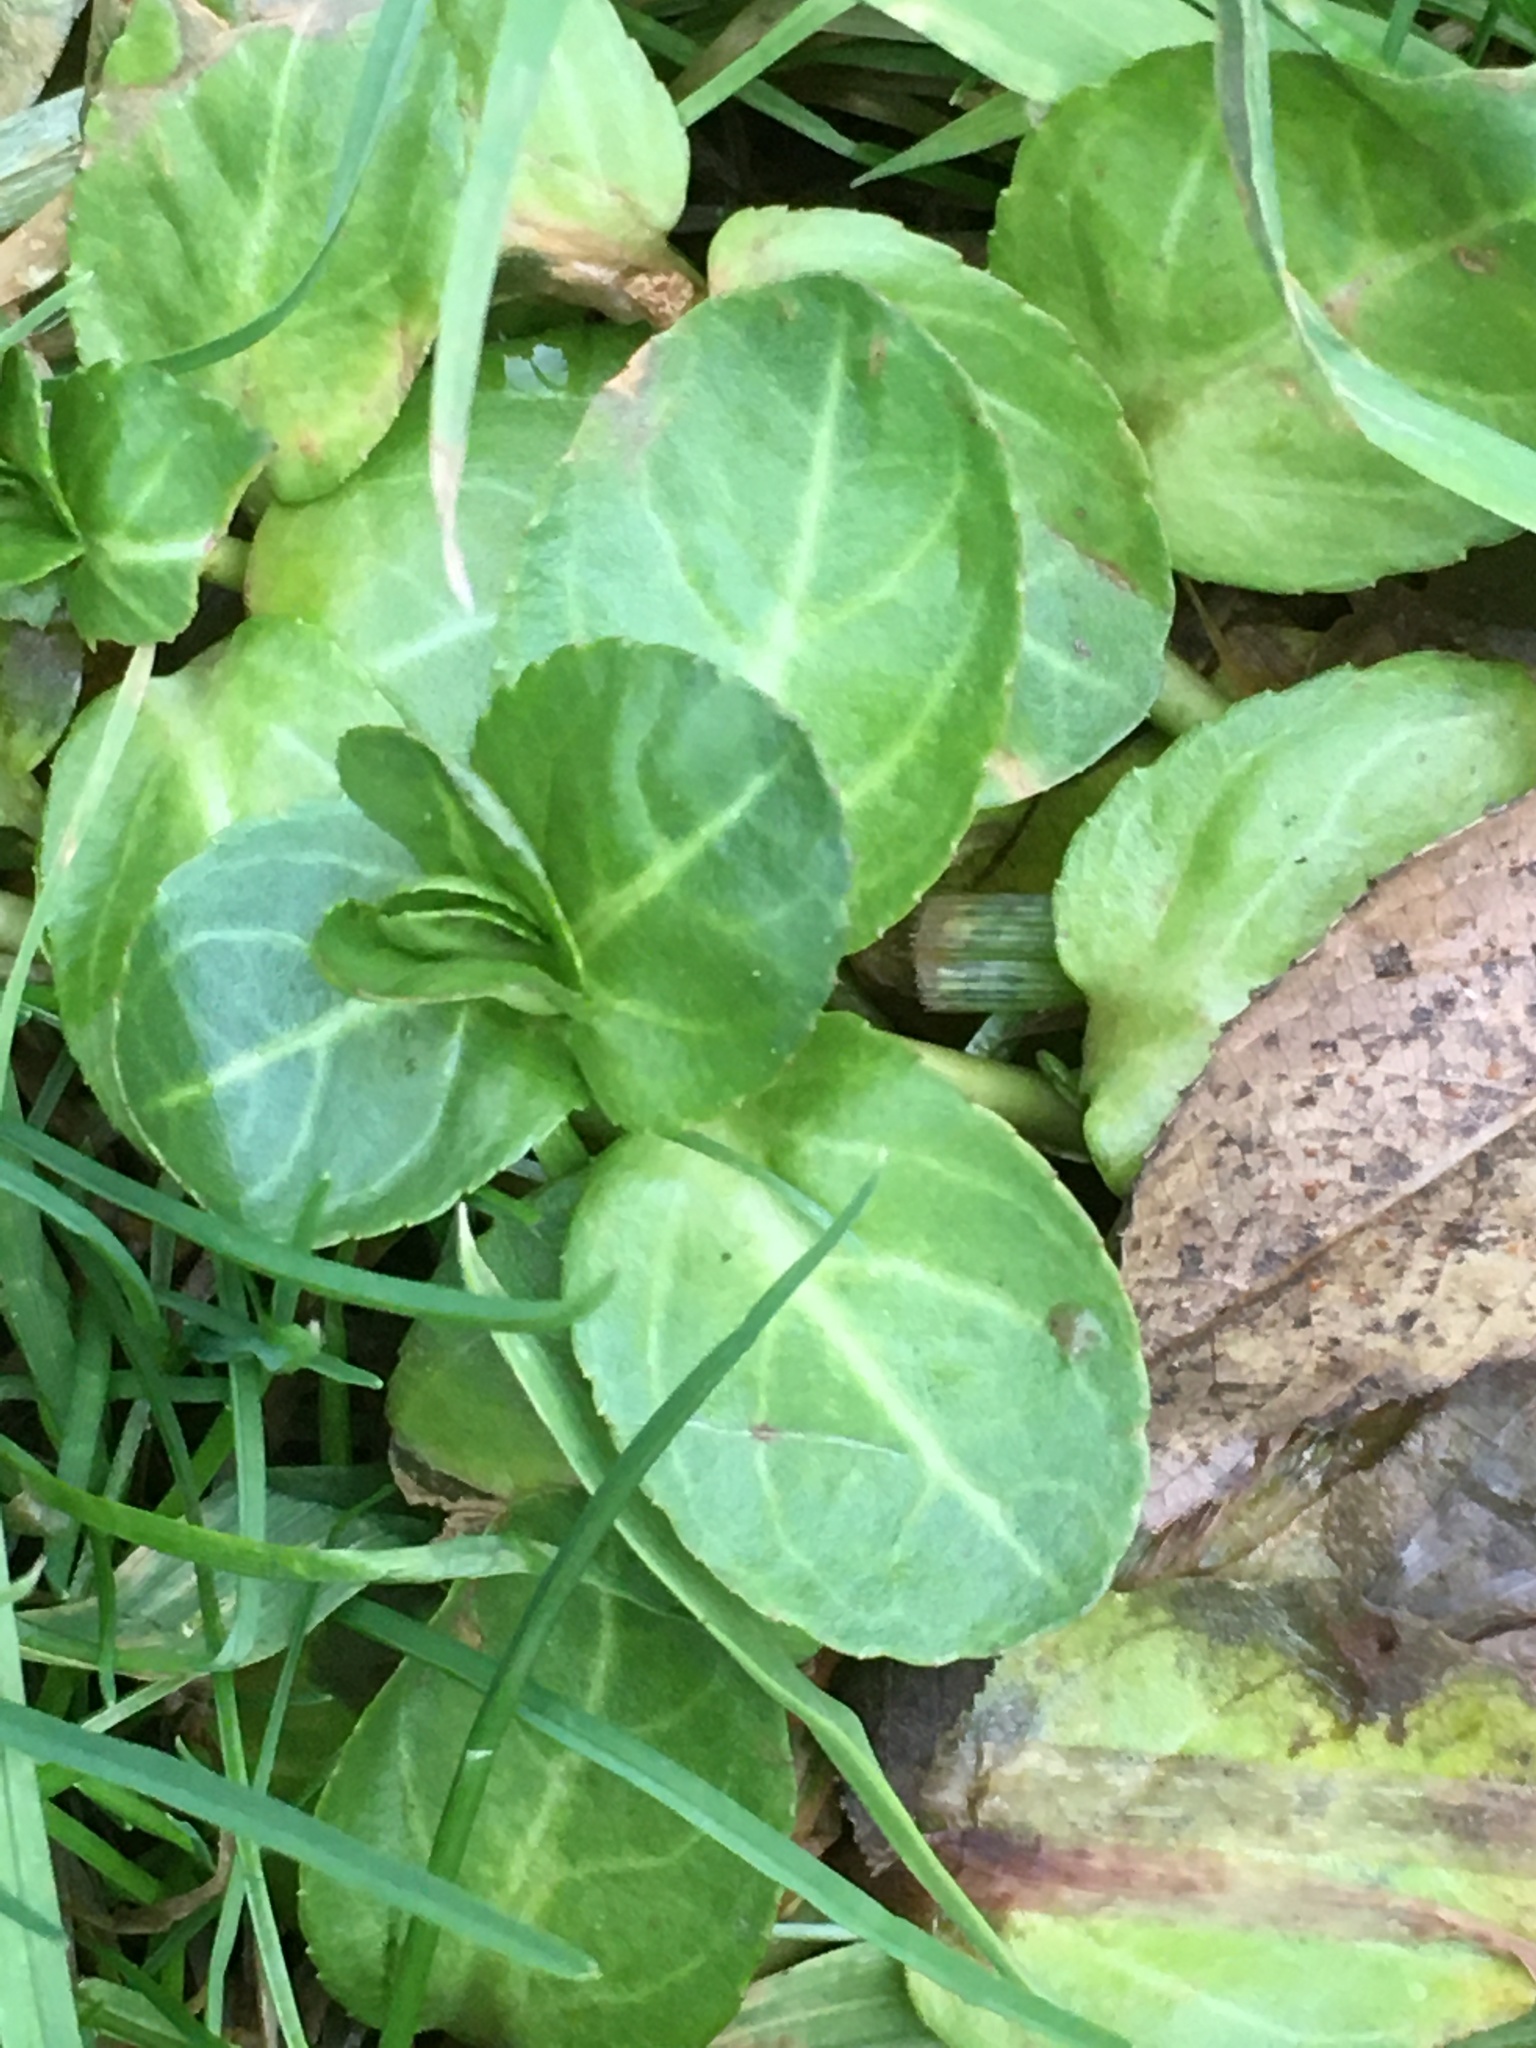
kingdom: Plantae
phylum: Tracheophyta
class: Magnoliopsida
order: Lamiales
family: Plantaginaceae
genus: Veronica
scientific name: Veronica beccabunga
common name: Brooklime
